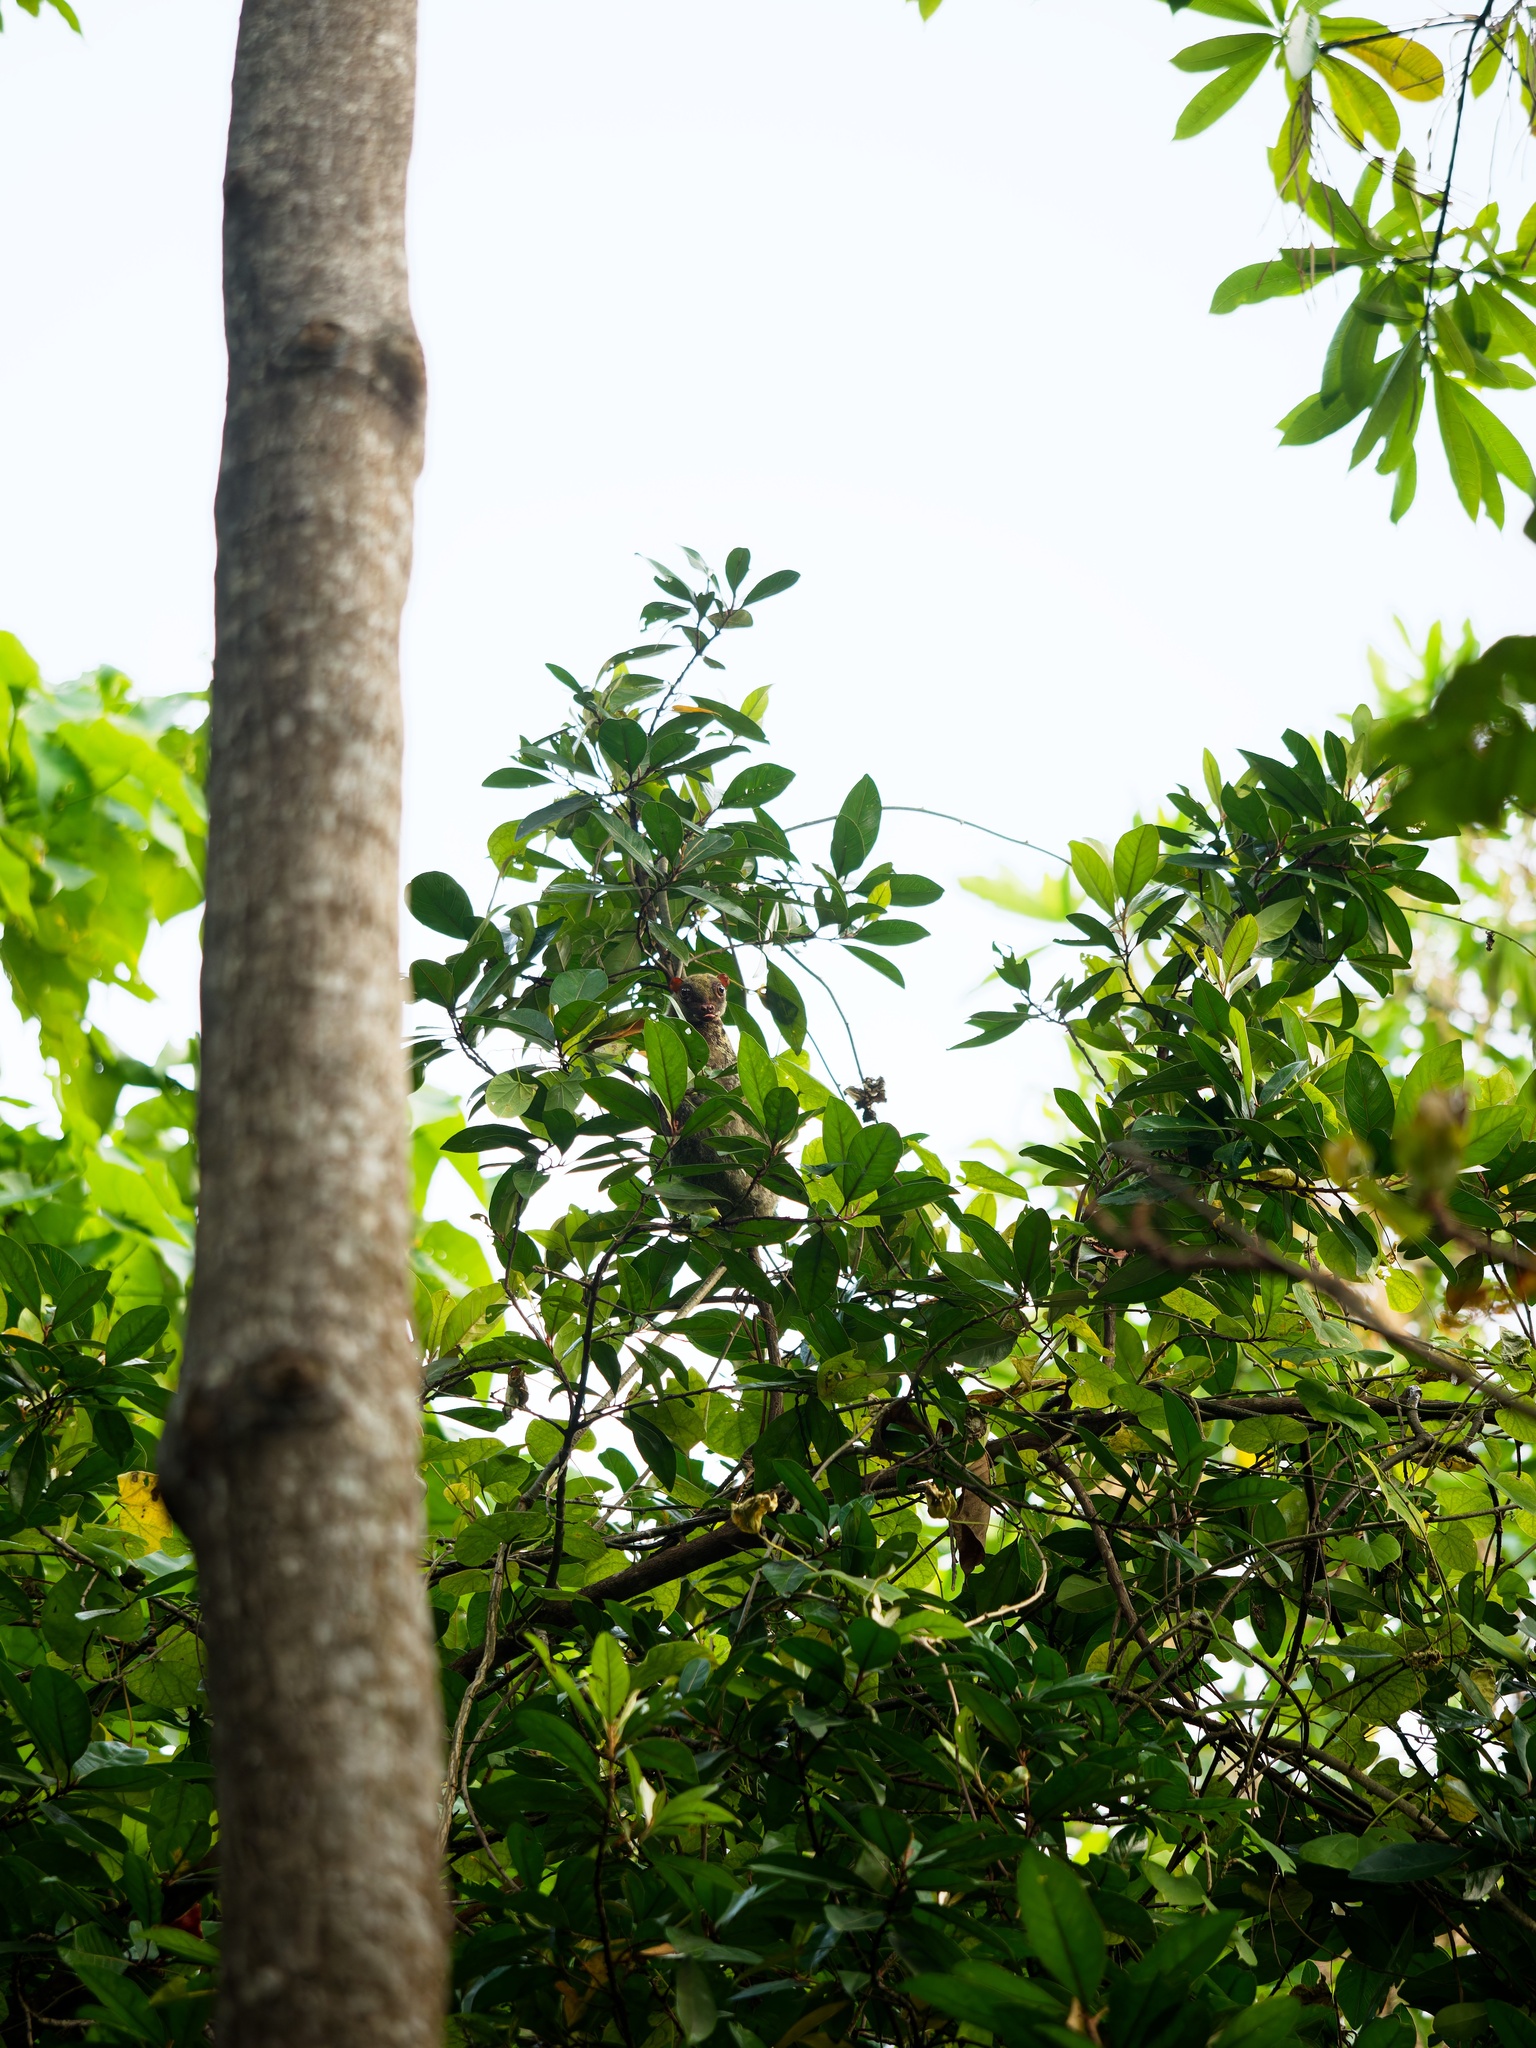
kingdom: Animalia
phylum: Chordata
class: Mammalia
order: Dermoptera
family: Cynocephalidae
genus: Galeopterus
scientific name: Galeopterus variegatus
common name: Sunda flying lemur
